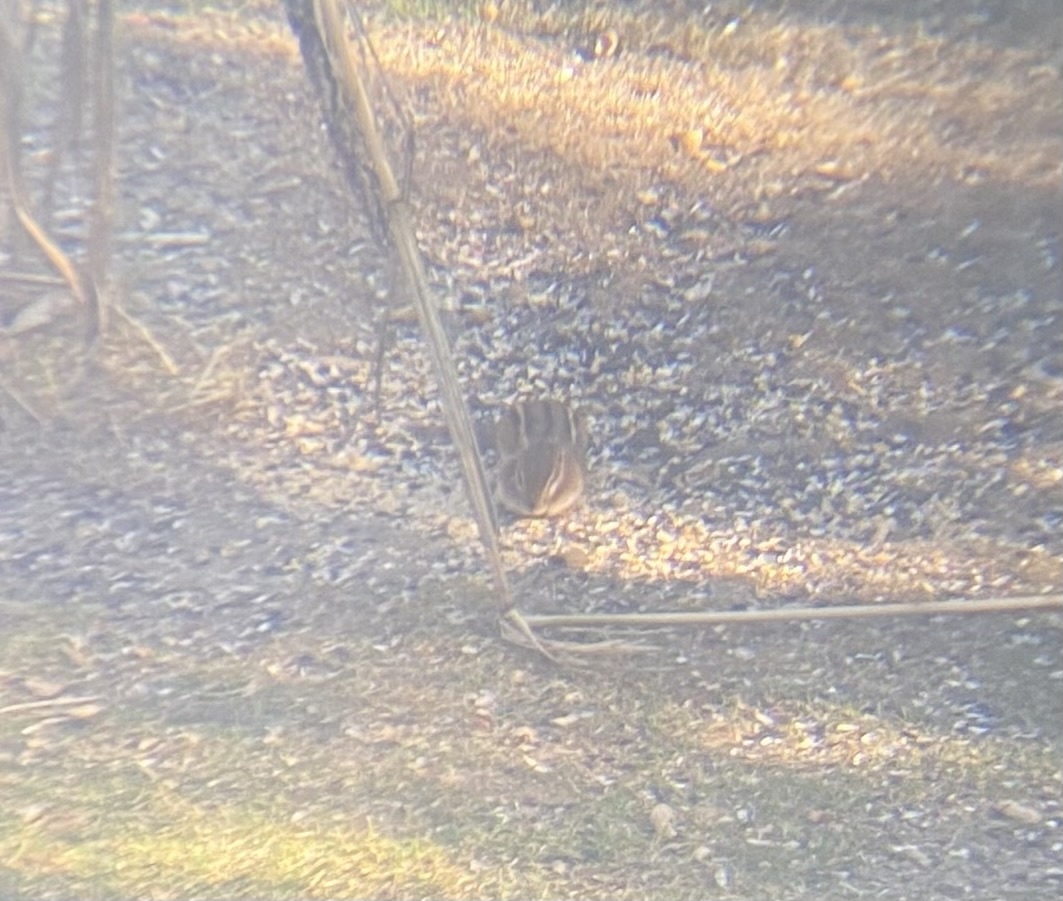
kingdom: Animalia
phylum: Chordata
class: Mammalia
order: Rodentia
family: Sciuridae
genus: Tamias
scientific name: Tamias striatus
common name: Eastern chipmunk
